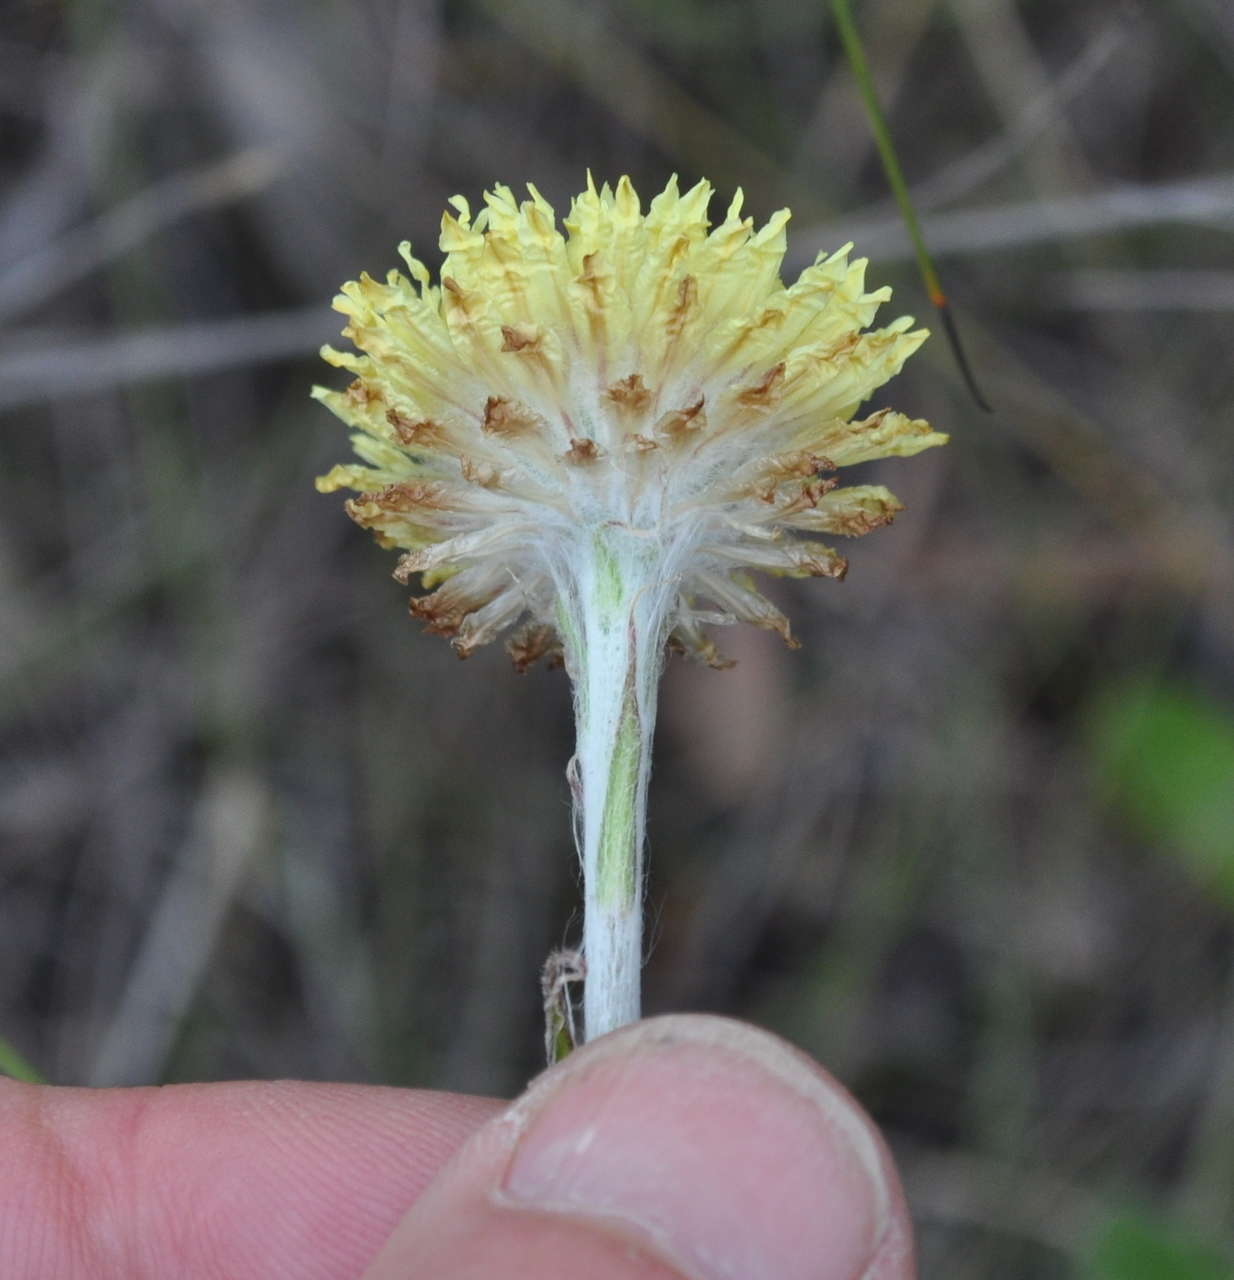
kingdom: Plantae
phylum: Tracheophyta
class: Magnoliopsida
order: Asterales
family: Asteraceae
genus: Coronidium
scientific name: Coronidium scorpioides
